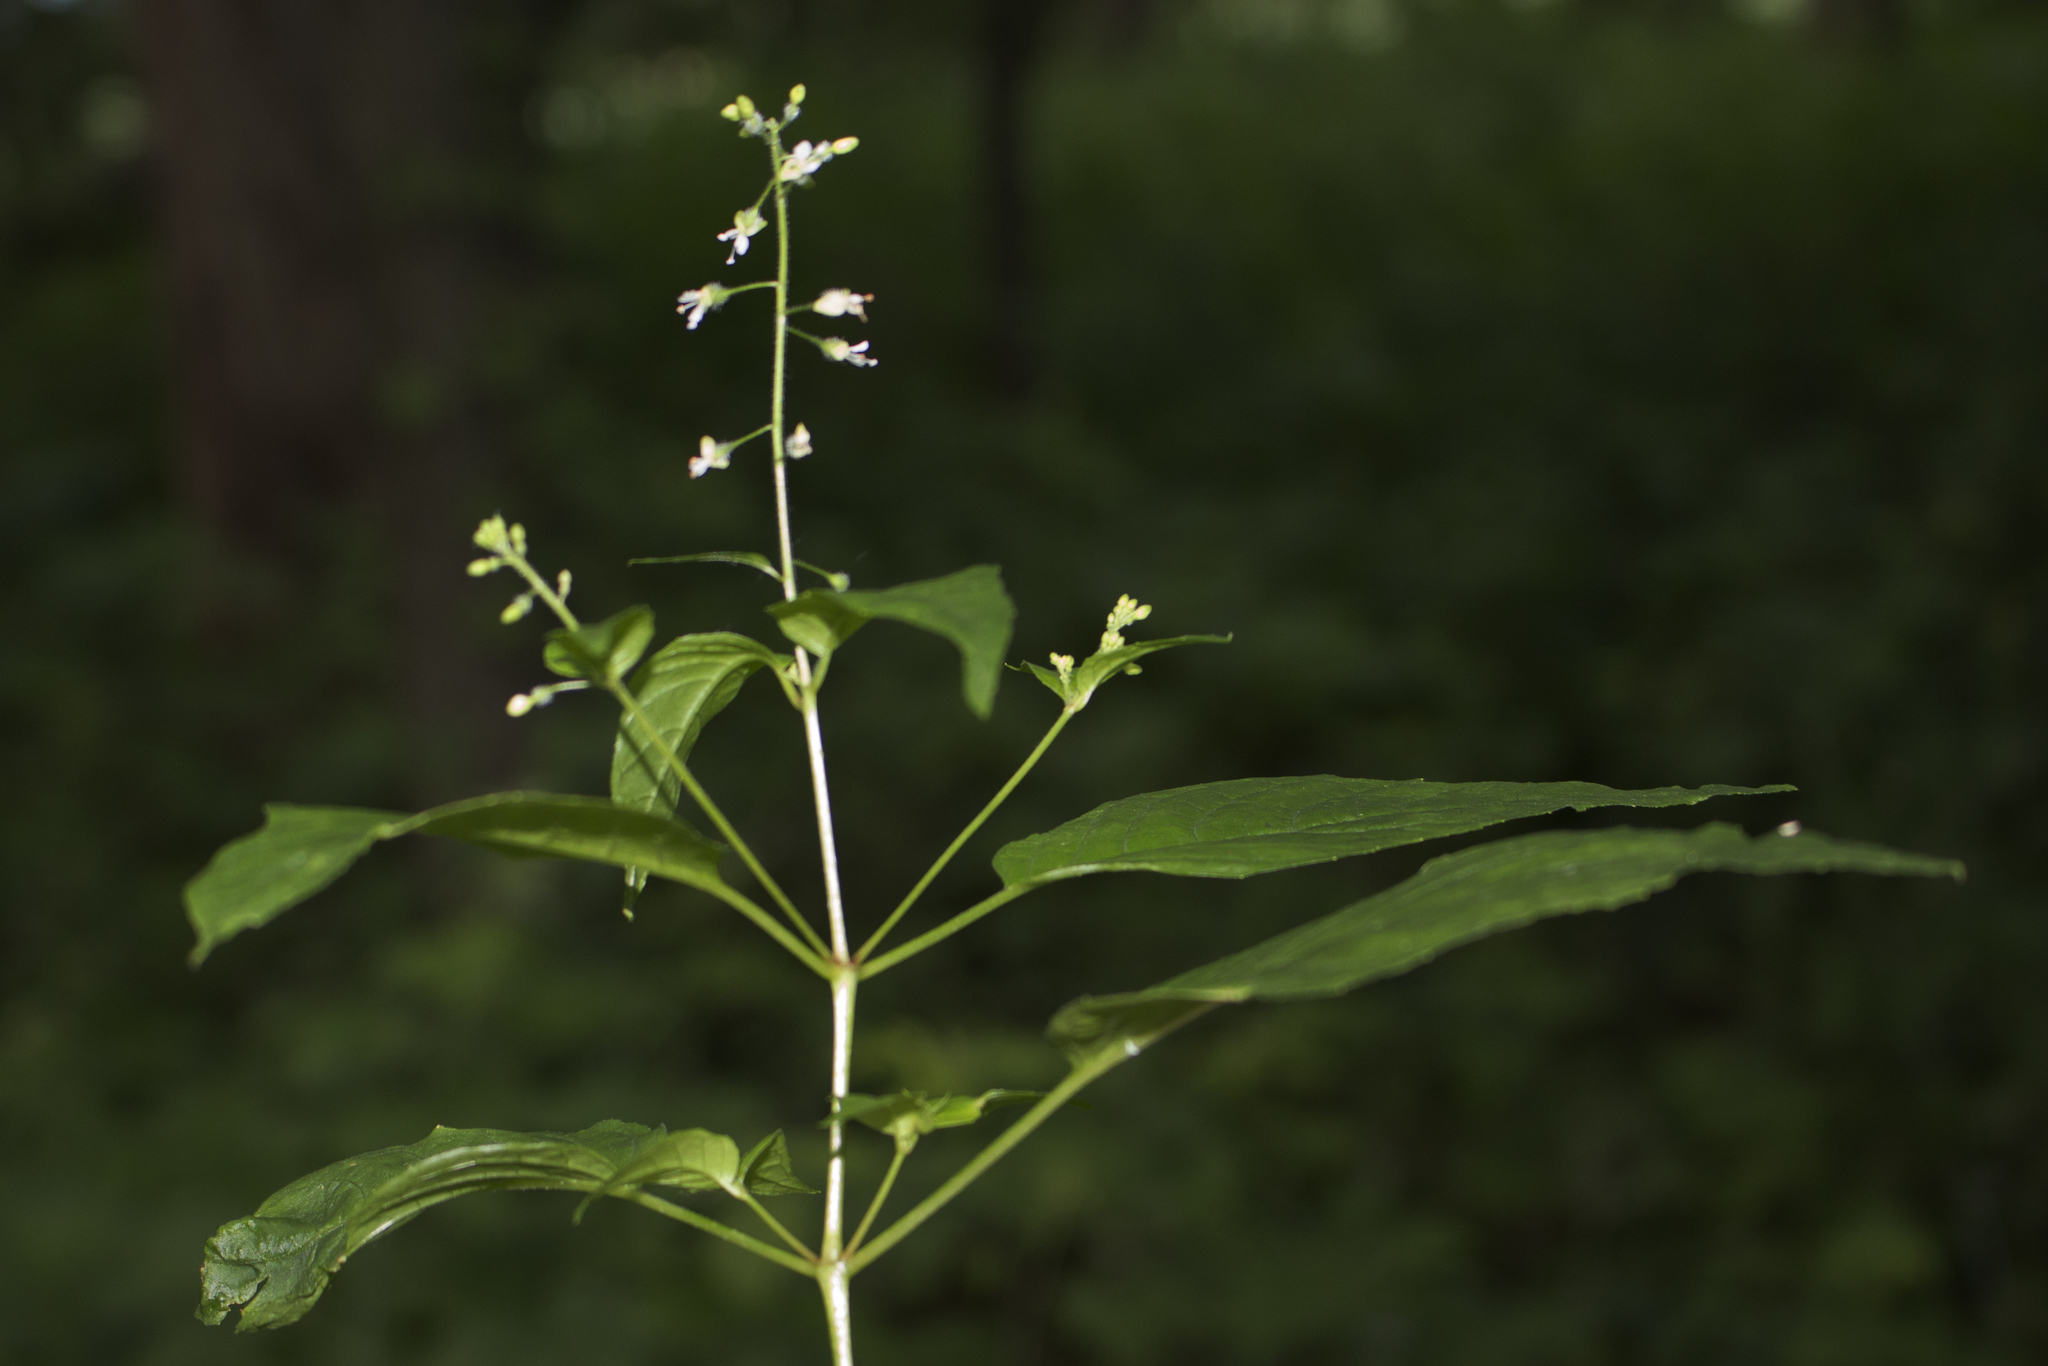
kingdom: Plantae
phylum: Tracheophyta
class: Magnoliopsida
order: Myrtales
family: Onagraceae
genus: Circaea
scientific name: Circaea canadensis
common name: Broad-leaved enchanter's nightshade
